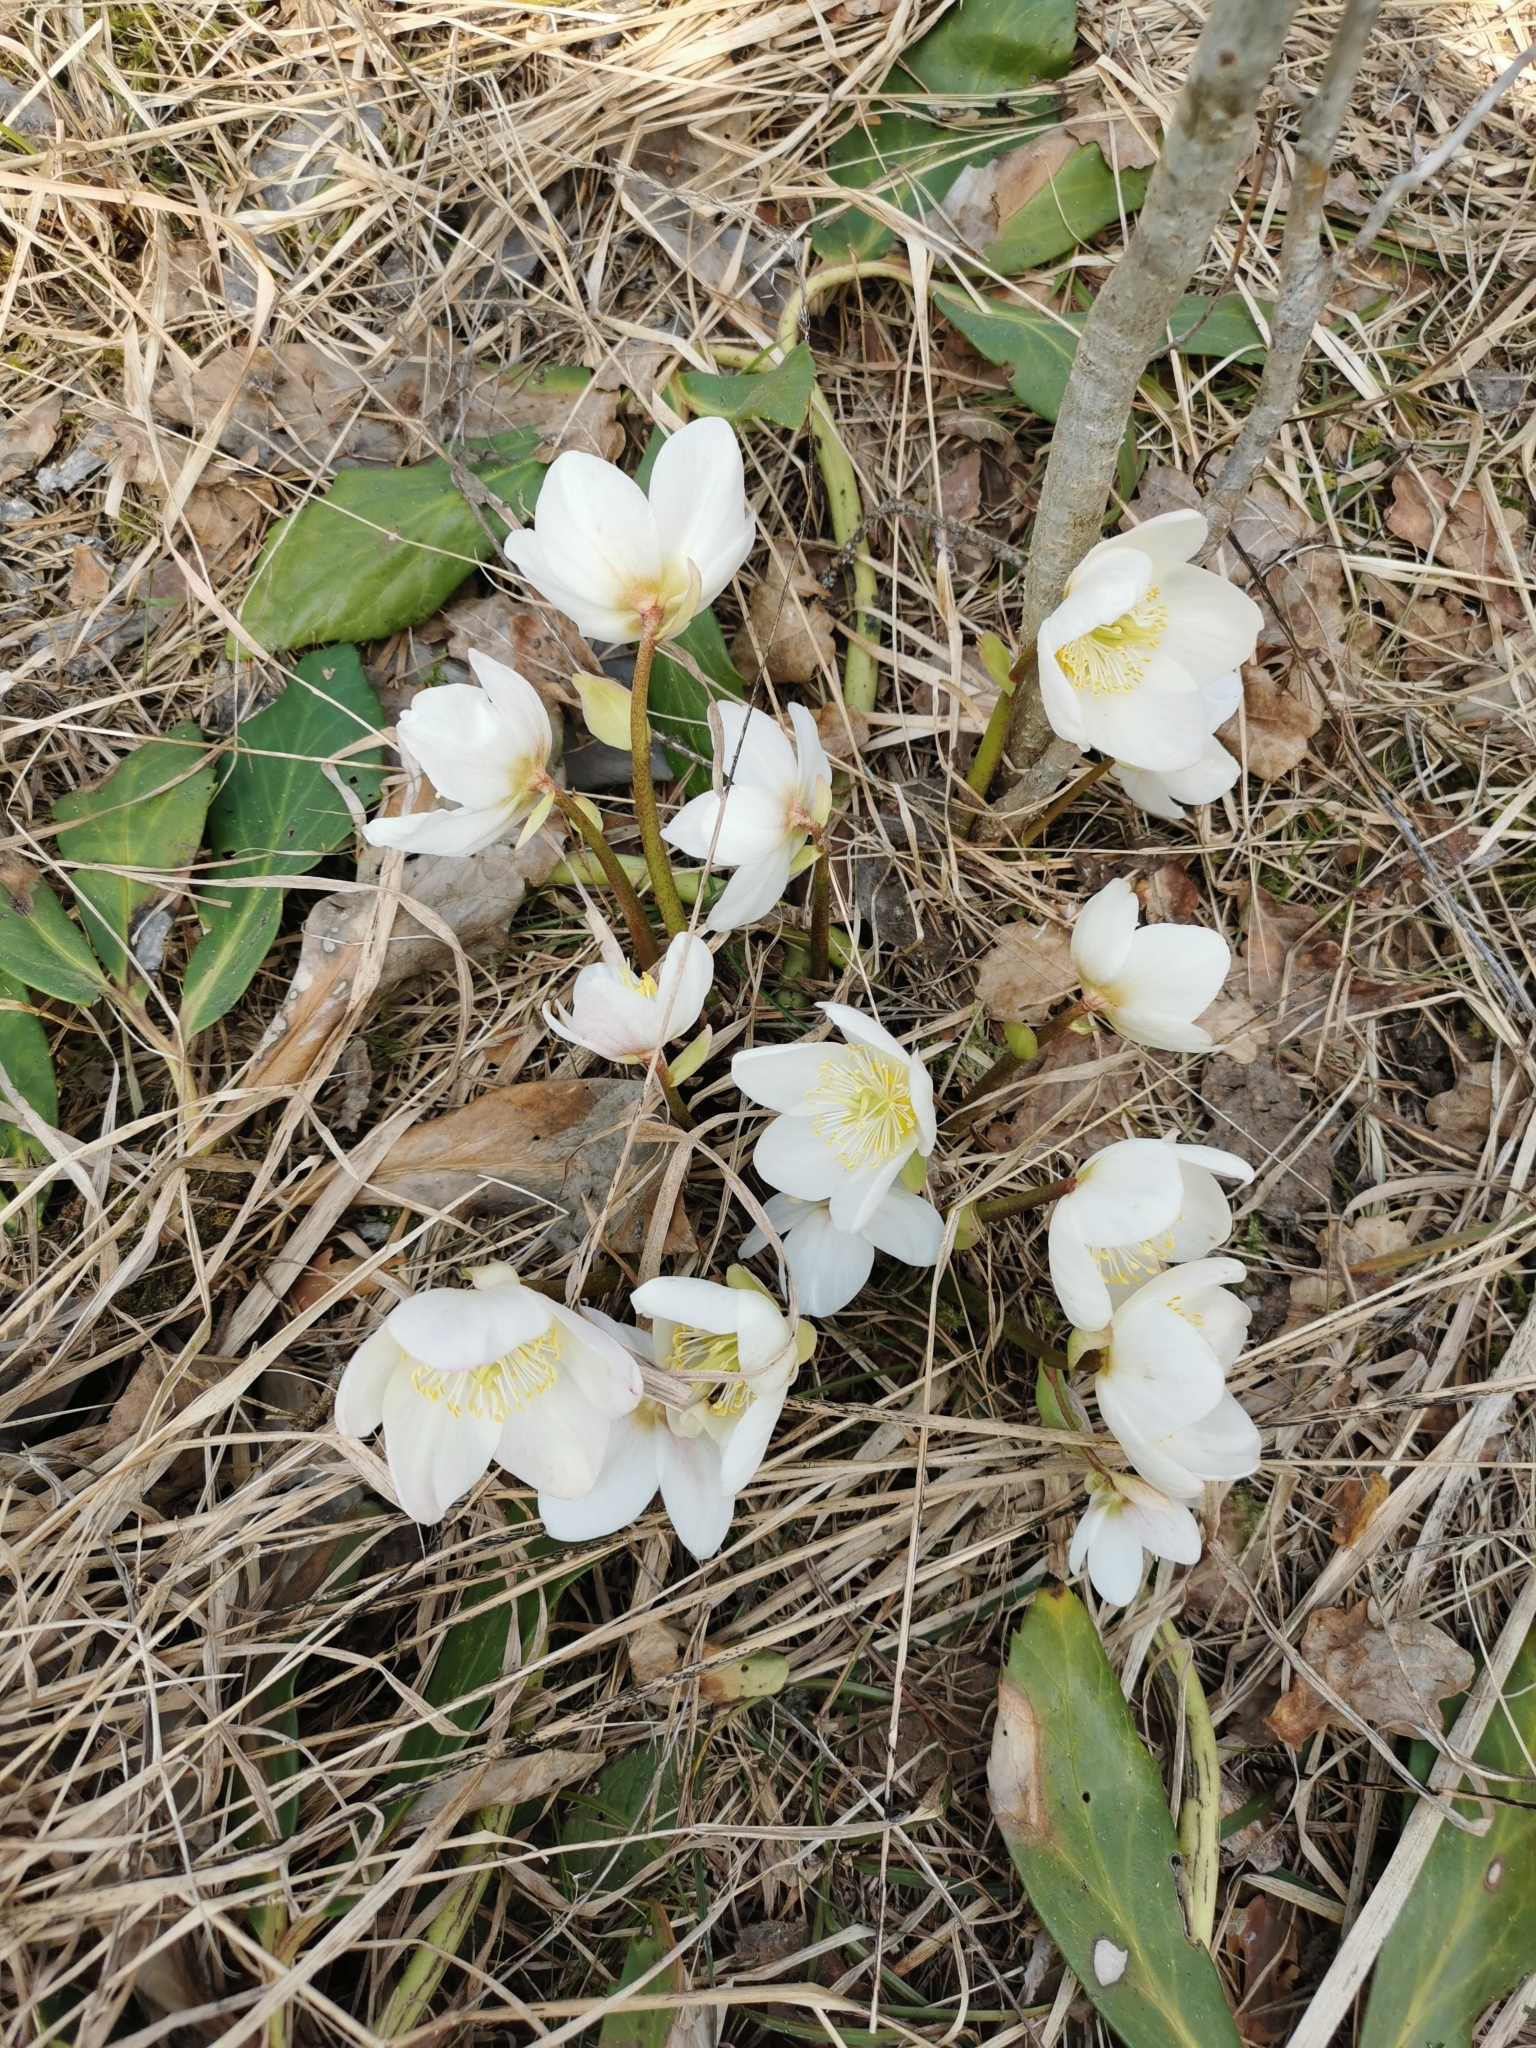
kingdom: Plantae
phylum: Tracheophyta
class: Magnoliopsida
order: Ranunculales
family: Ranunculaceae
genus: Helleborus
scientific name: Helleborus niger
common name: Black hellebore
